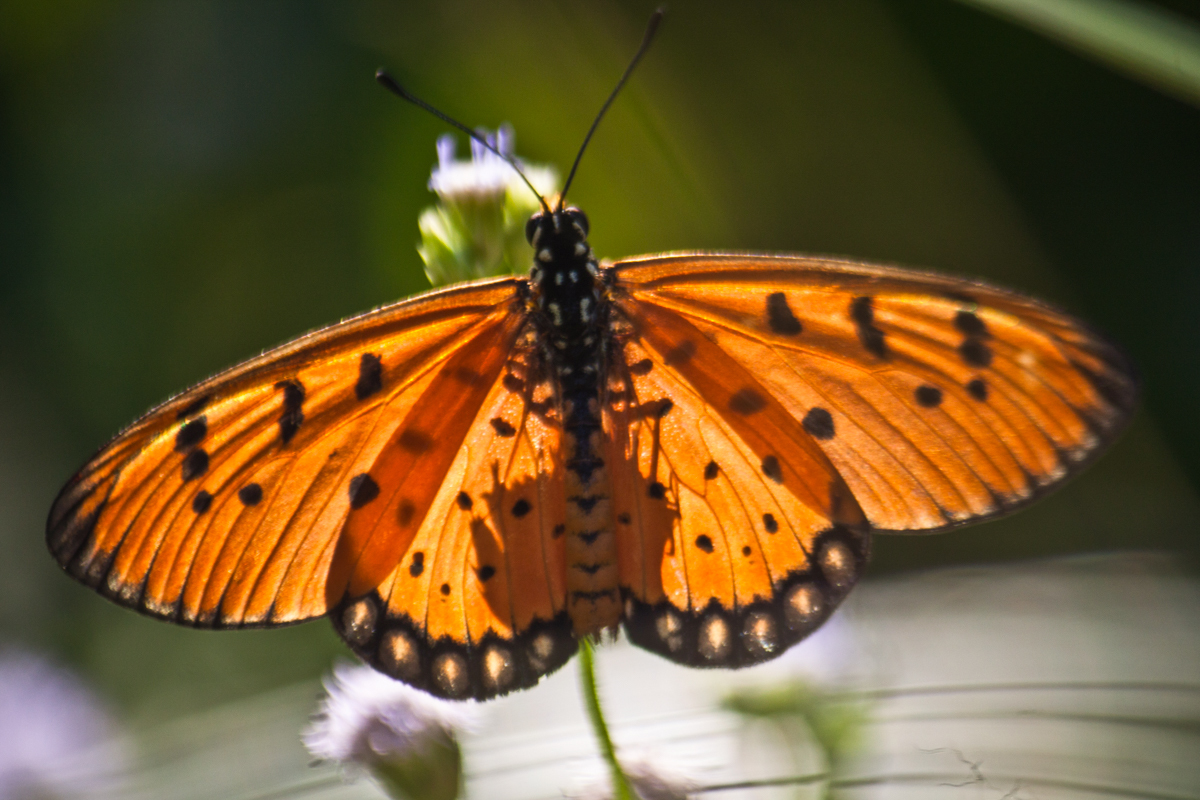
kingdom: Animalia
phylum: Arthropoda
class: Insecta
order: Lepidoptera
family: Nymphalidae
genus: Acraea
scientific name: Acraea terpsicore
